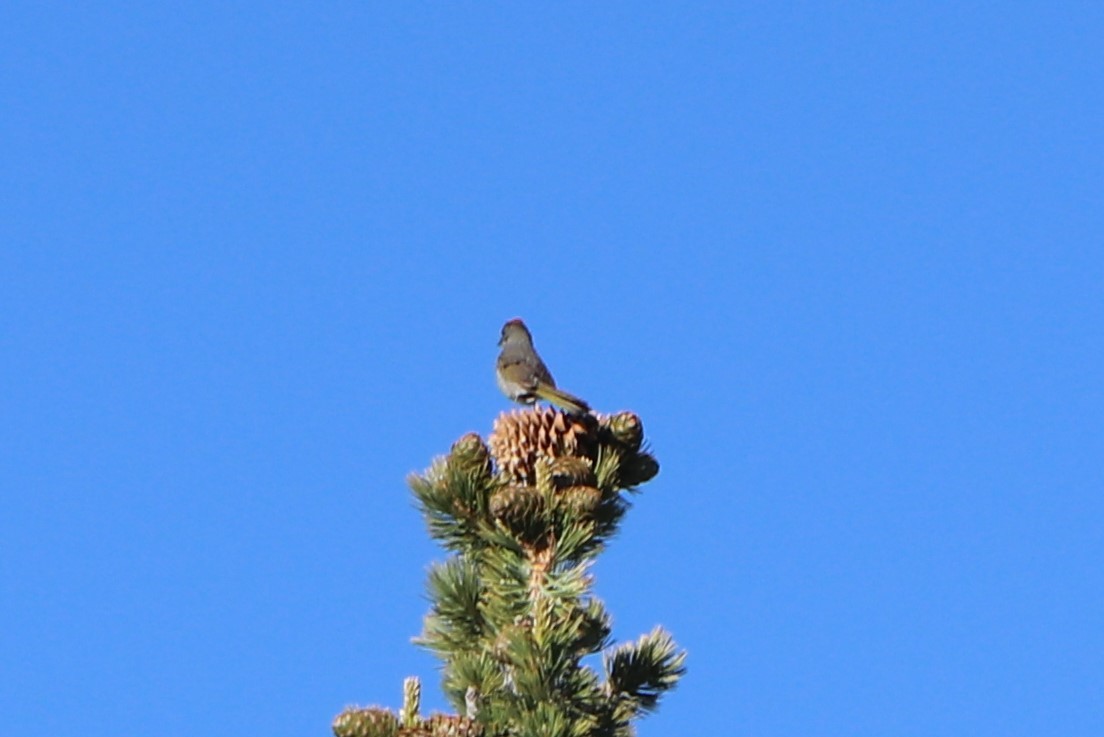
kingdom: Animalia
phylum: Chordata
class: Aves
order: Passeriformes
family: Passerellidae
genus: Pipilo
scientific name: Pipilo chlorurus
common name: Green-tailed towhee
